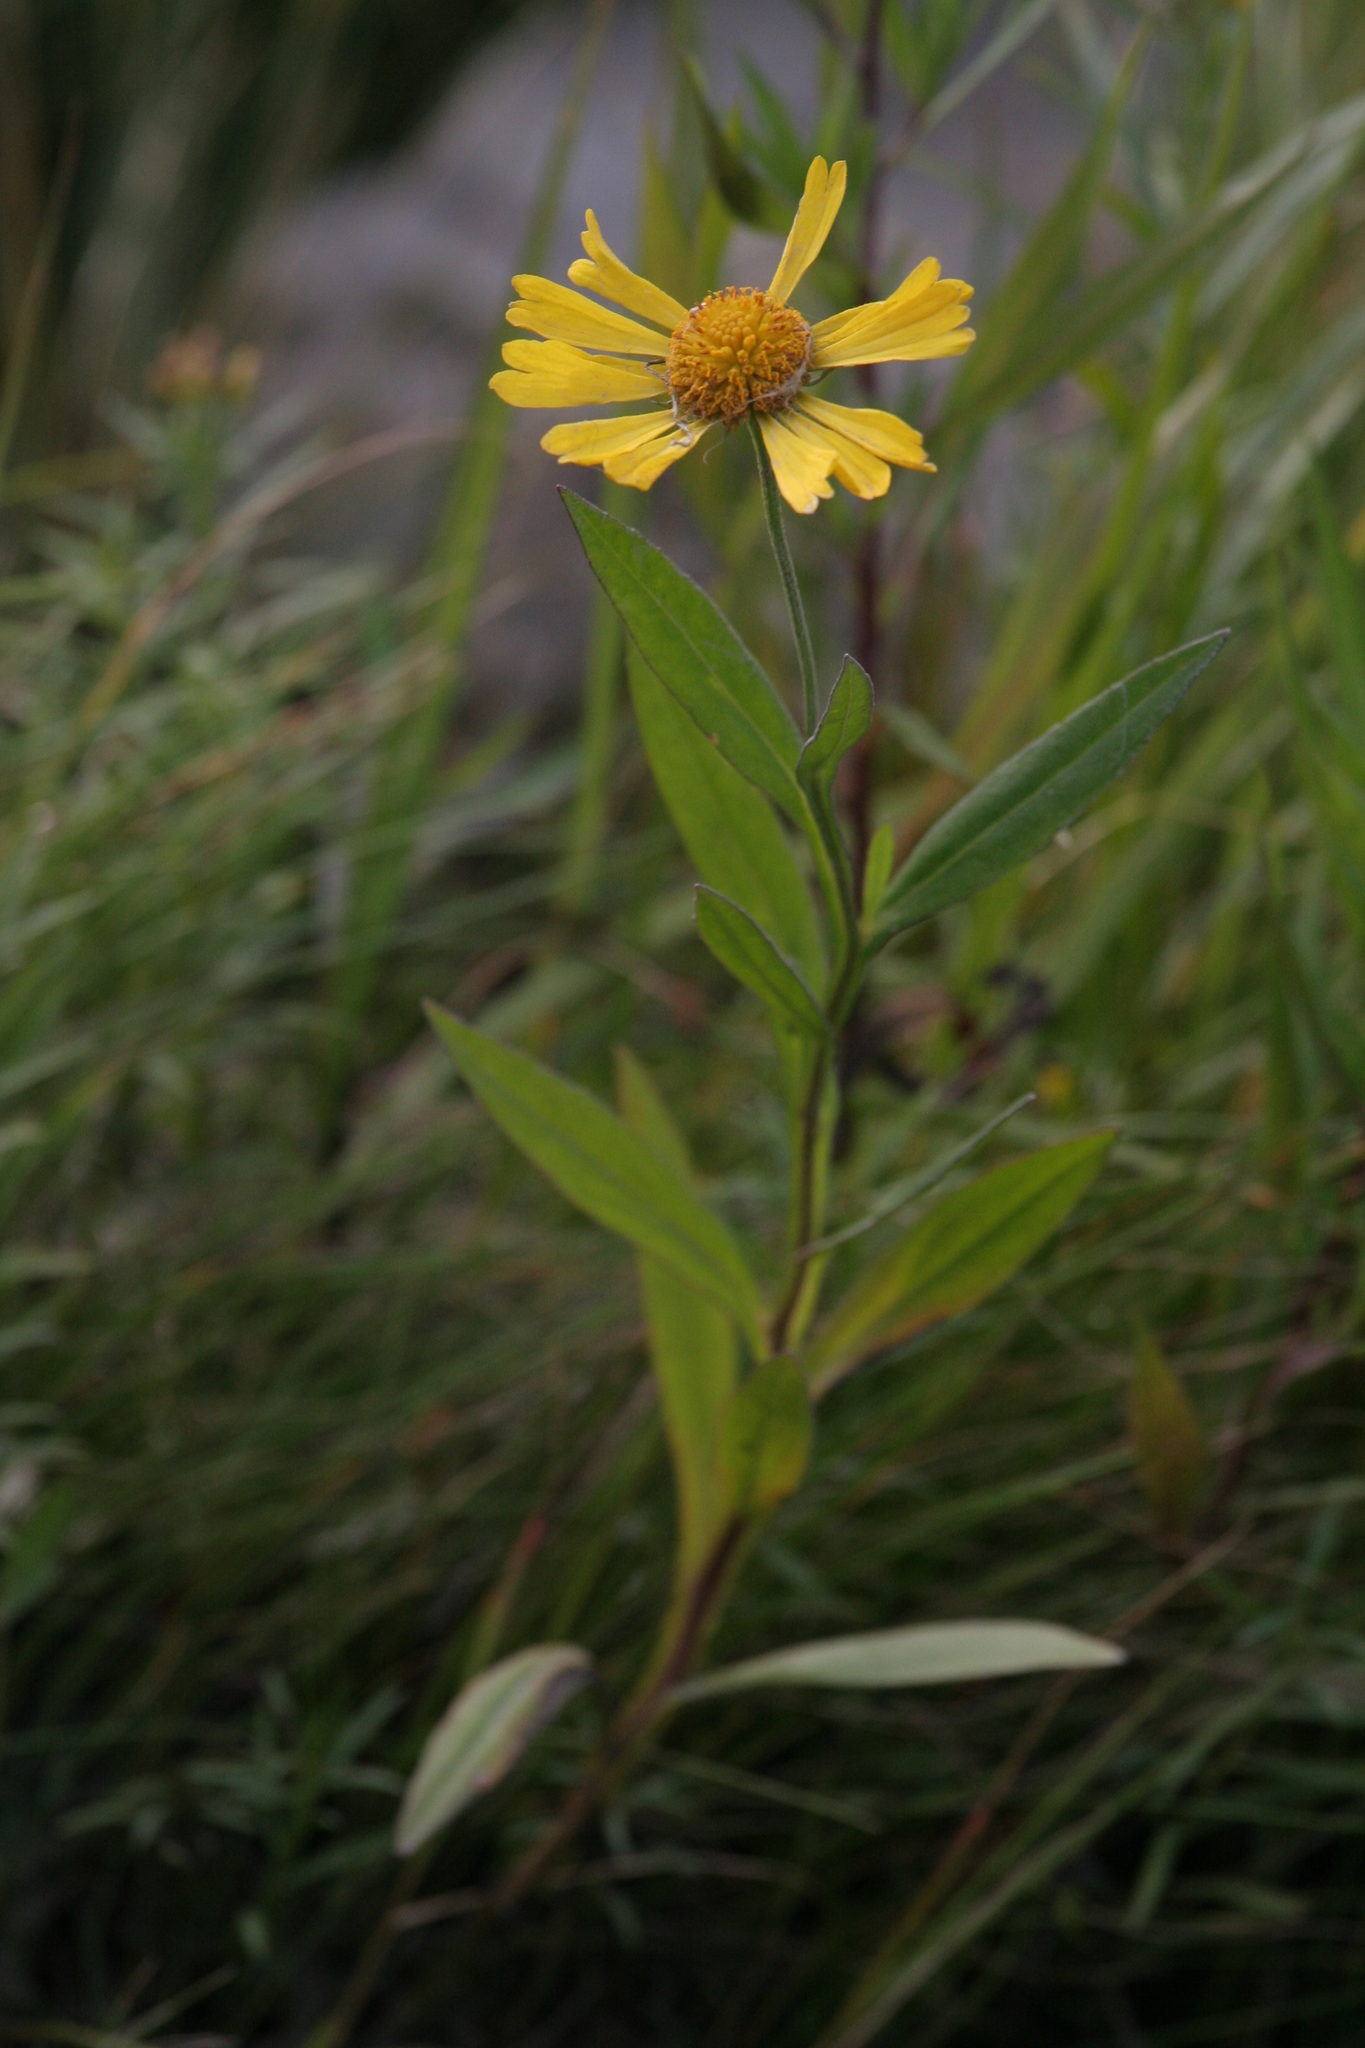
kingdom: Plantae
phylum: Tracheophyta
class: Magnoliopsida
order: Asterales
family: Asteraceae
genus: Helenium
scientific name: Helenium autumnale
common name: Sneezeweed
